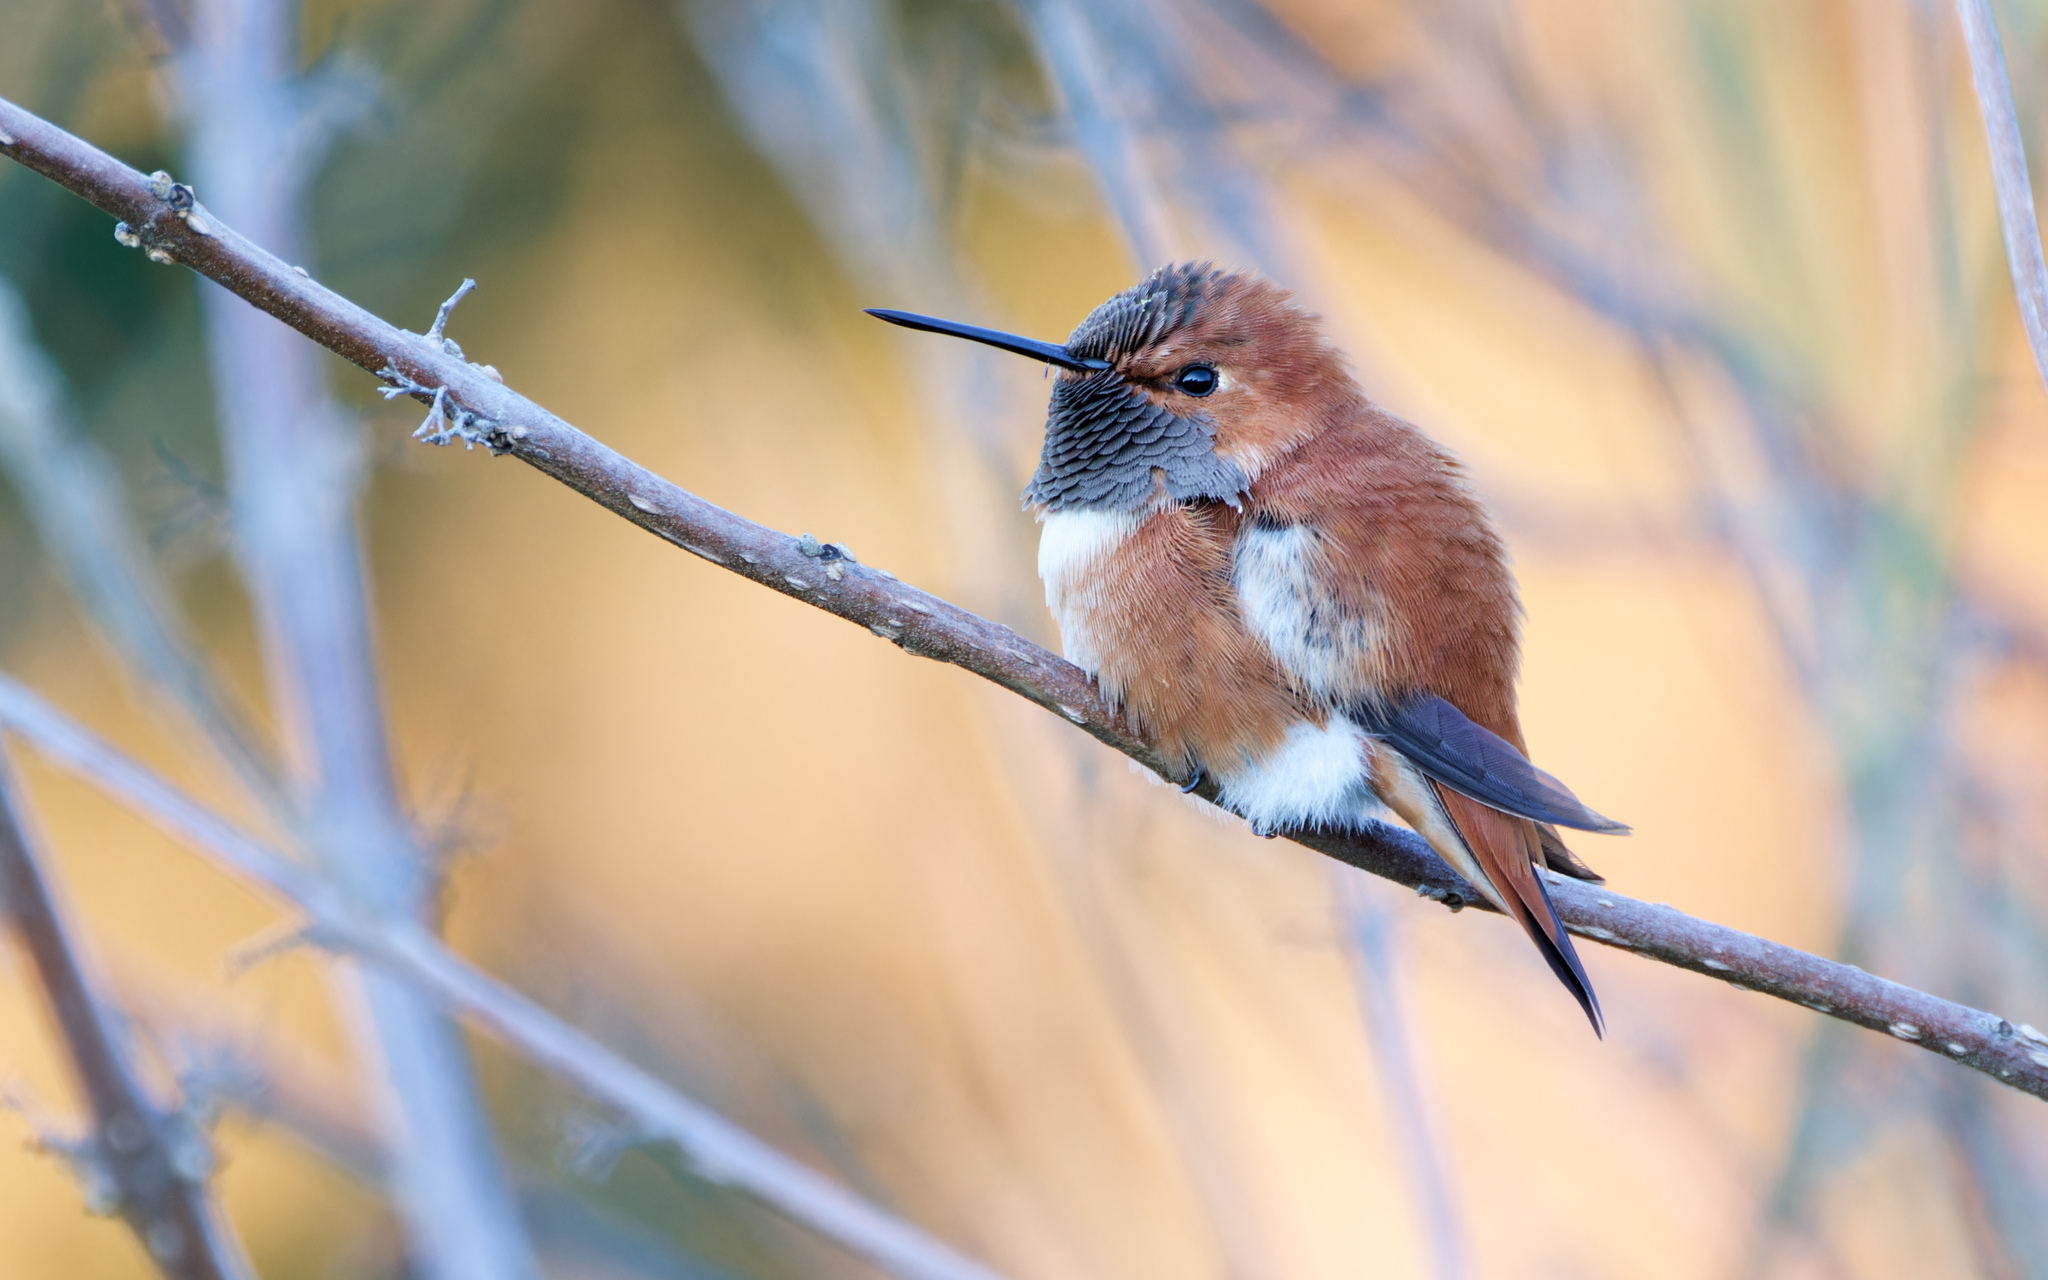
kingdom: Animalia
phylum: Chordata
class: Aves
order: Apodiformes
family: Trochilidae
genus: Selasphorus
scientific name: Selasphorus rufus
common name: Rufous hummingbird
